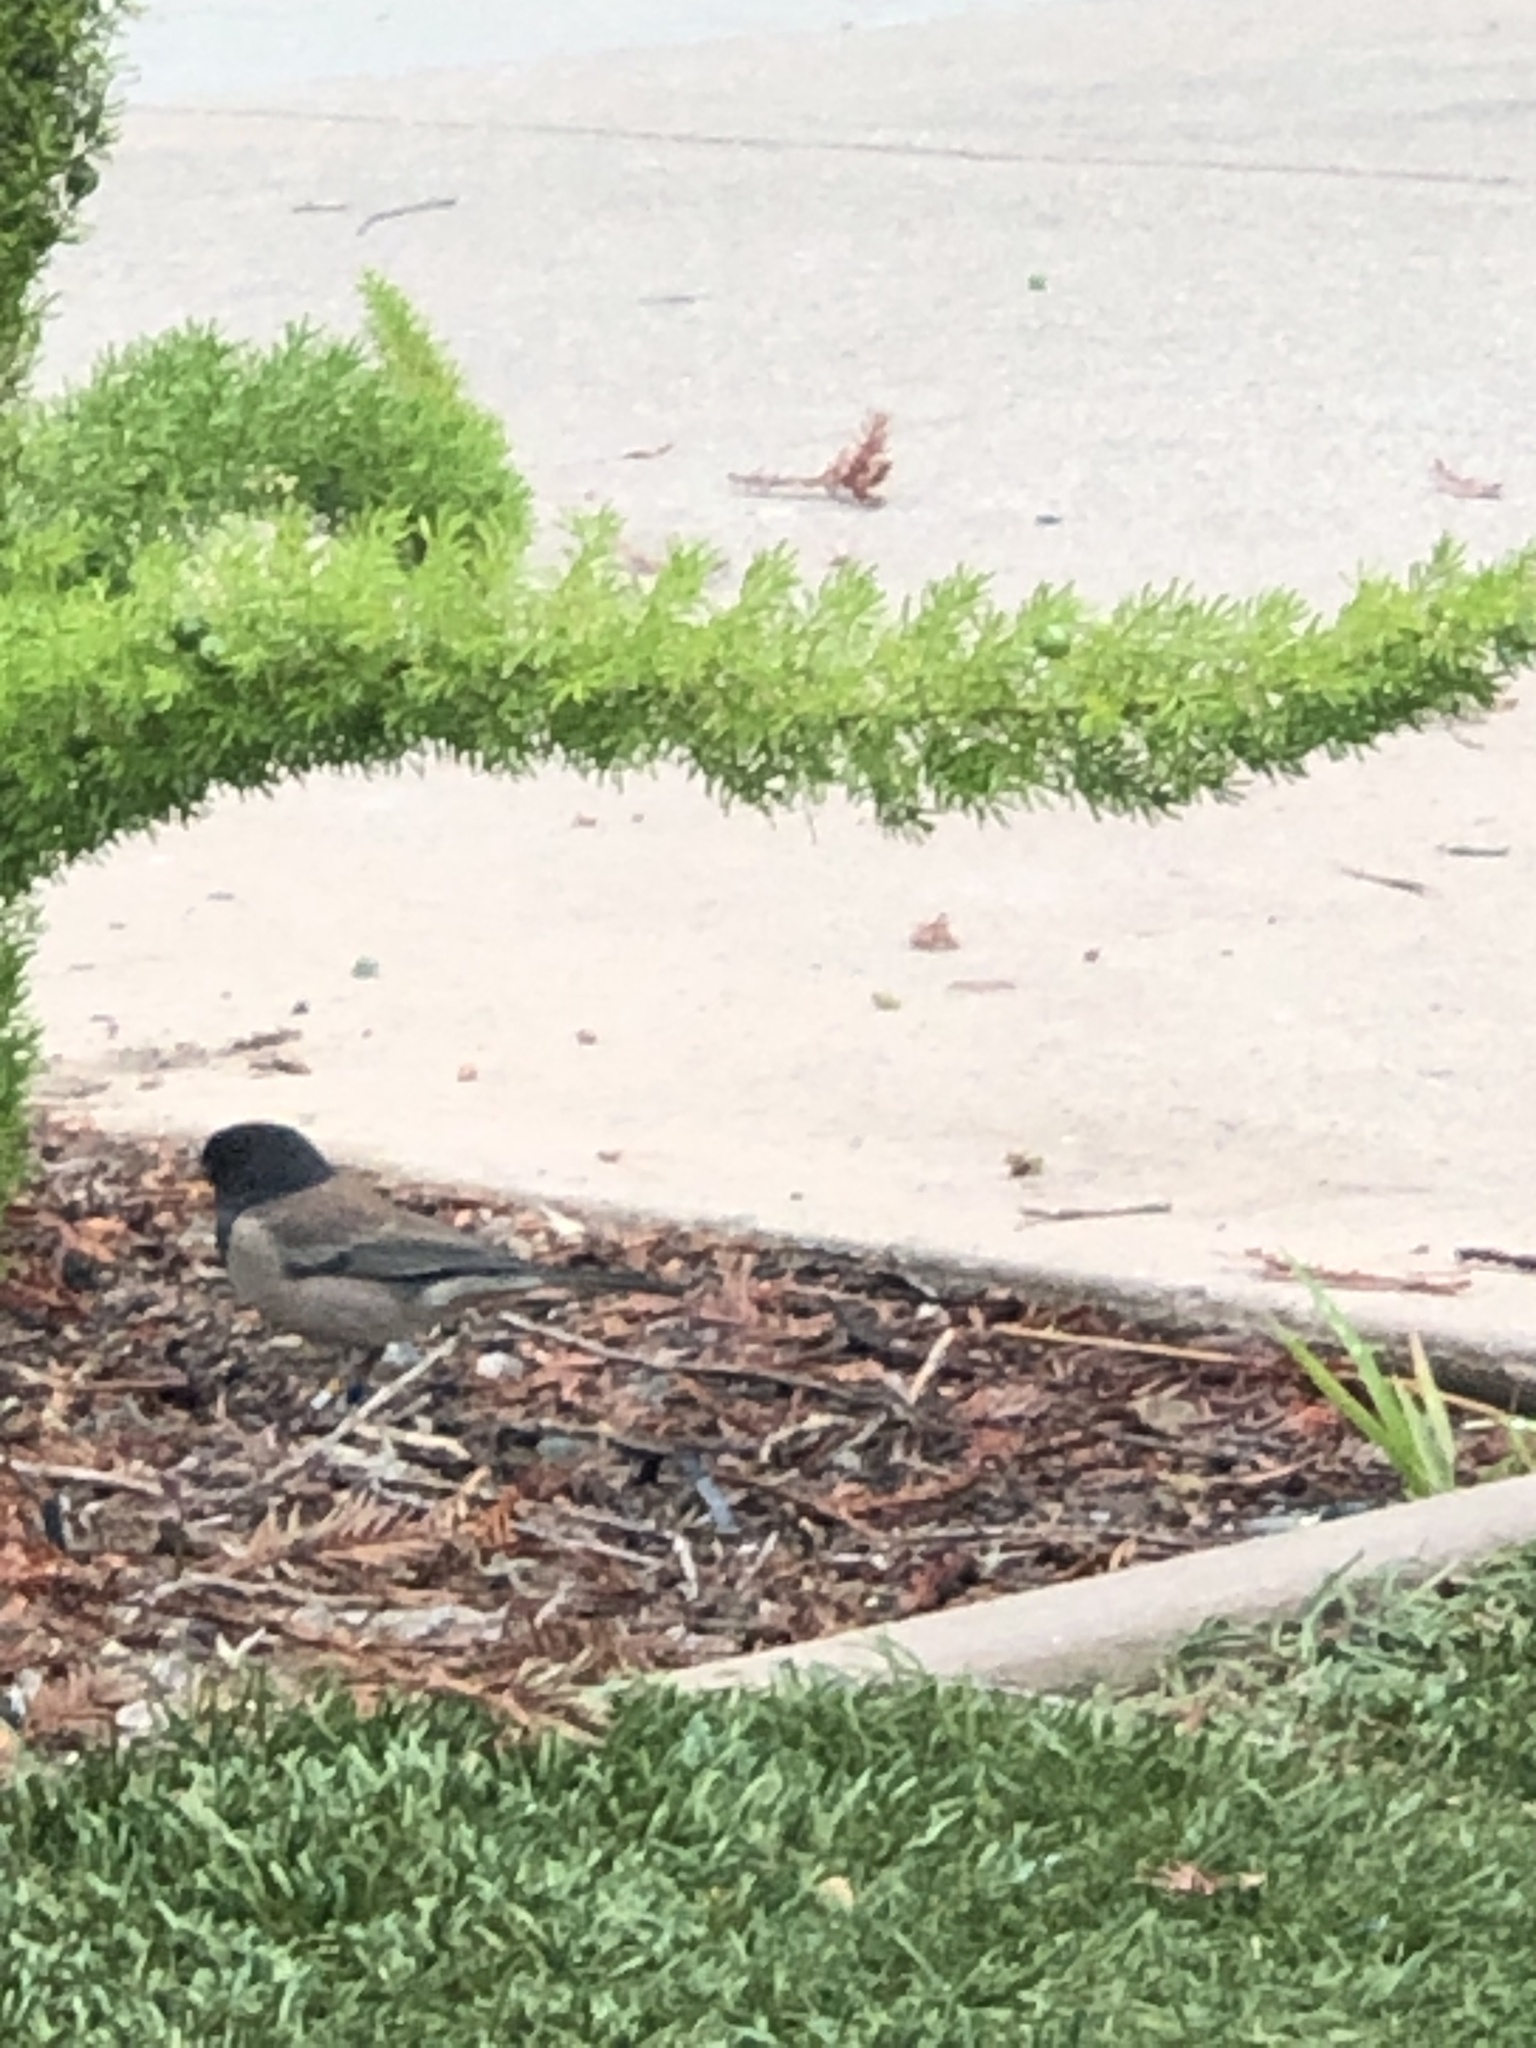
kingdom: Animalia
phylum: Chordata
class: Aves
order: Passeriformes
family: Passerellidae
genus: Junco
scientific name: Junco hyemalis
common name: Dark-eyed junco
